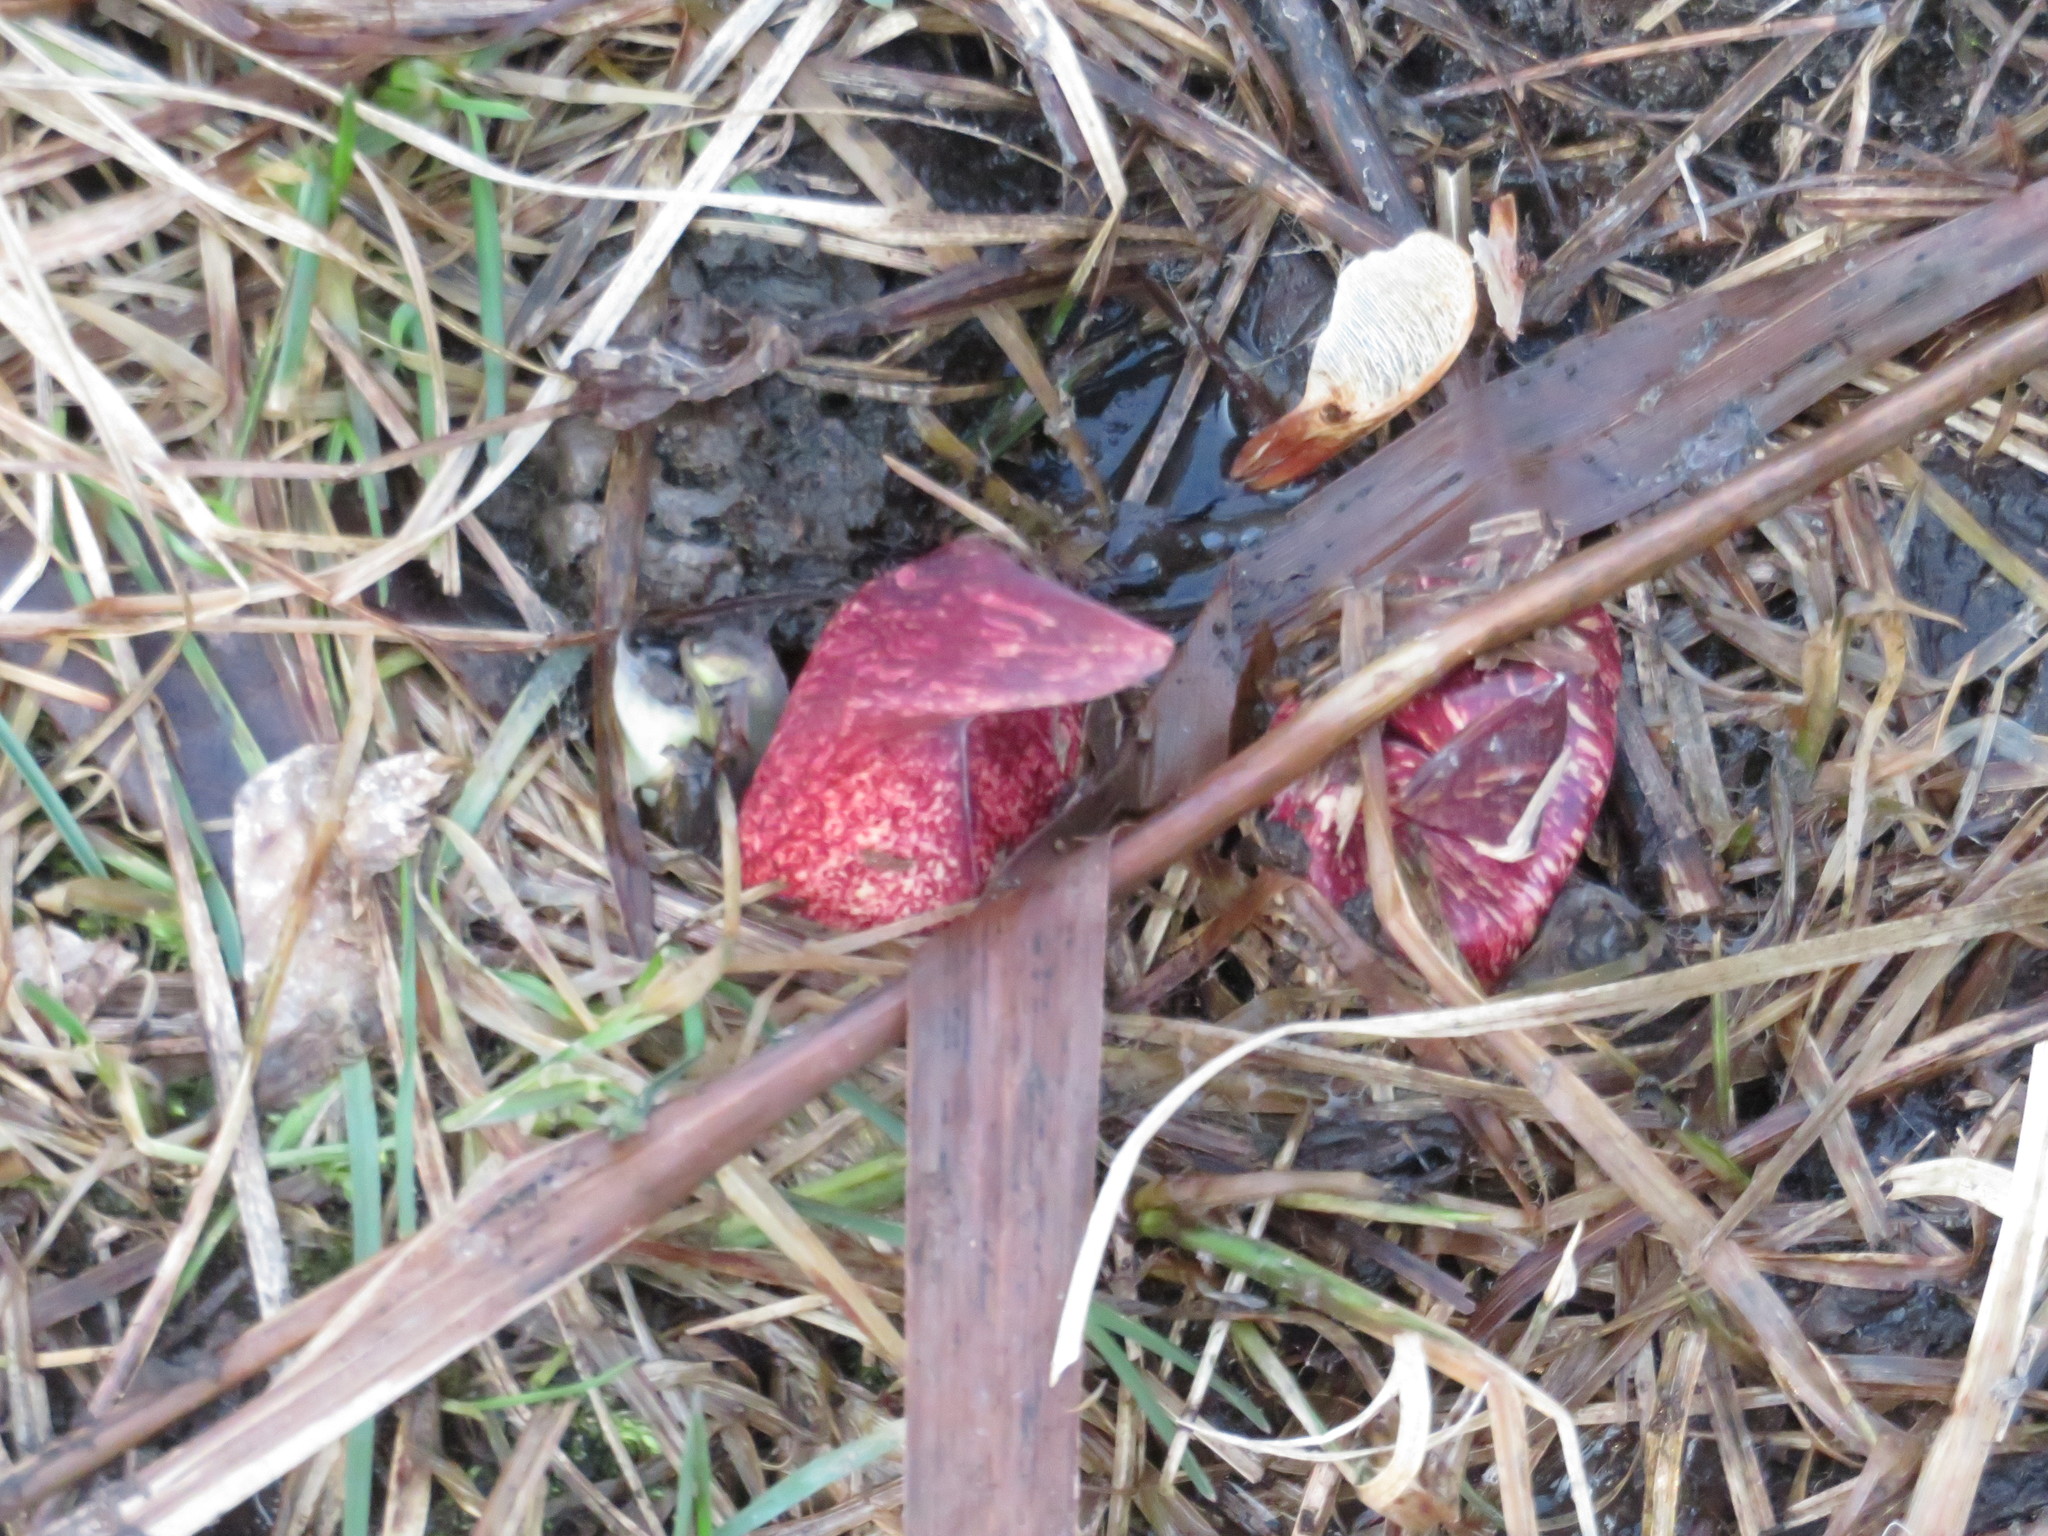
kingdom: Plantae
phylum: Tracheophyta
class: Liliopsida
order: Alismatales
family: Araceae
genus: Symplocarpus
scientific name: Symplocarpus foetidus
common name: Eastern skunk cabbage
